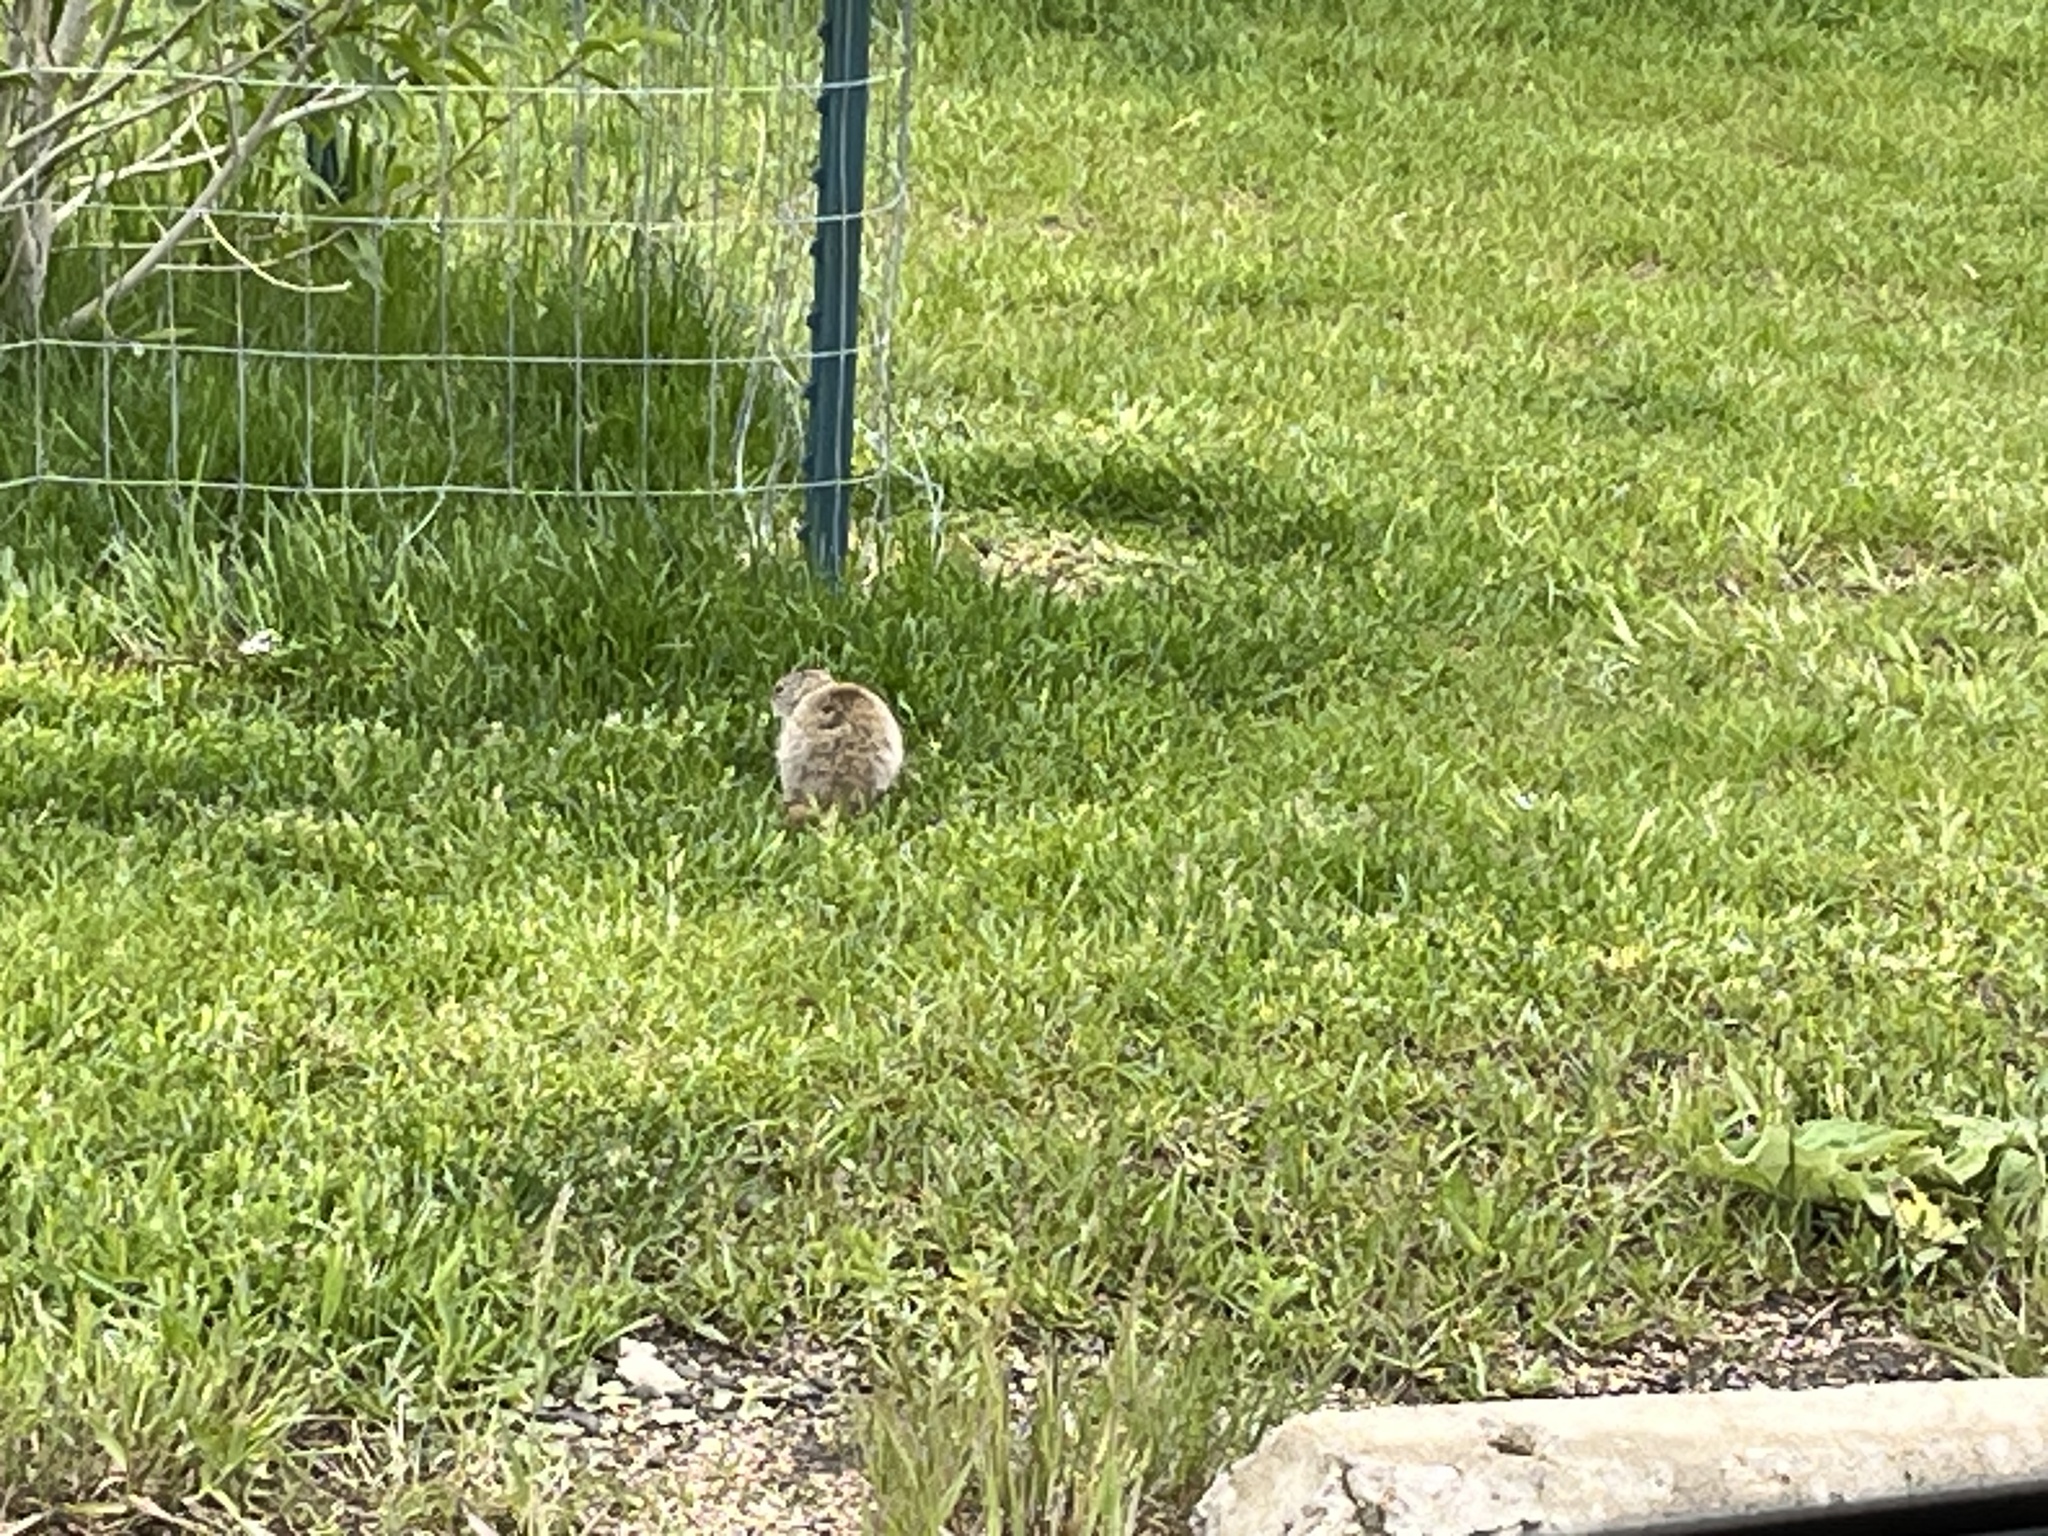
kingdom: Animalia
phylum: Chordata
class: Mammalia
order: Rodentia
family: Sciuridae
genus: Urocitellus
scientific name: Urocitellus elegans
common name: Wyoming ground squirrel
